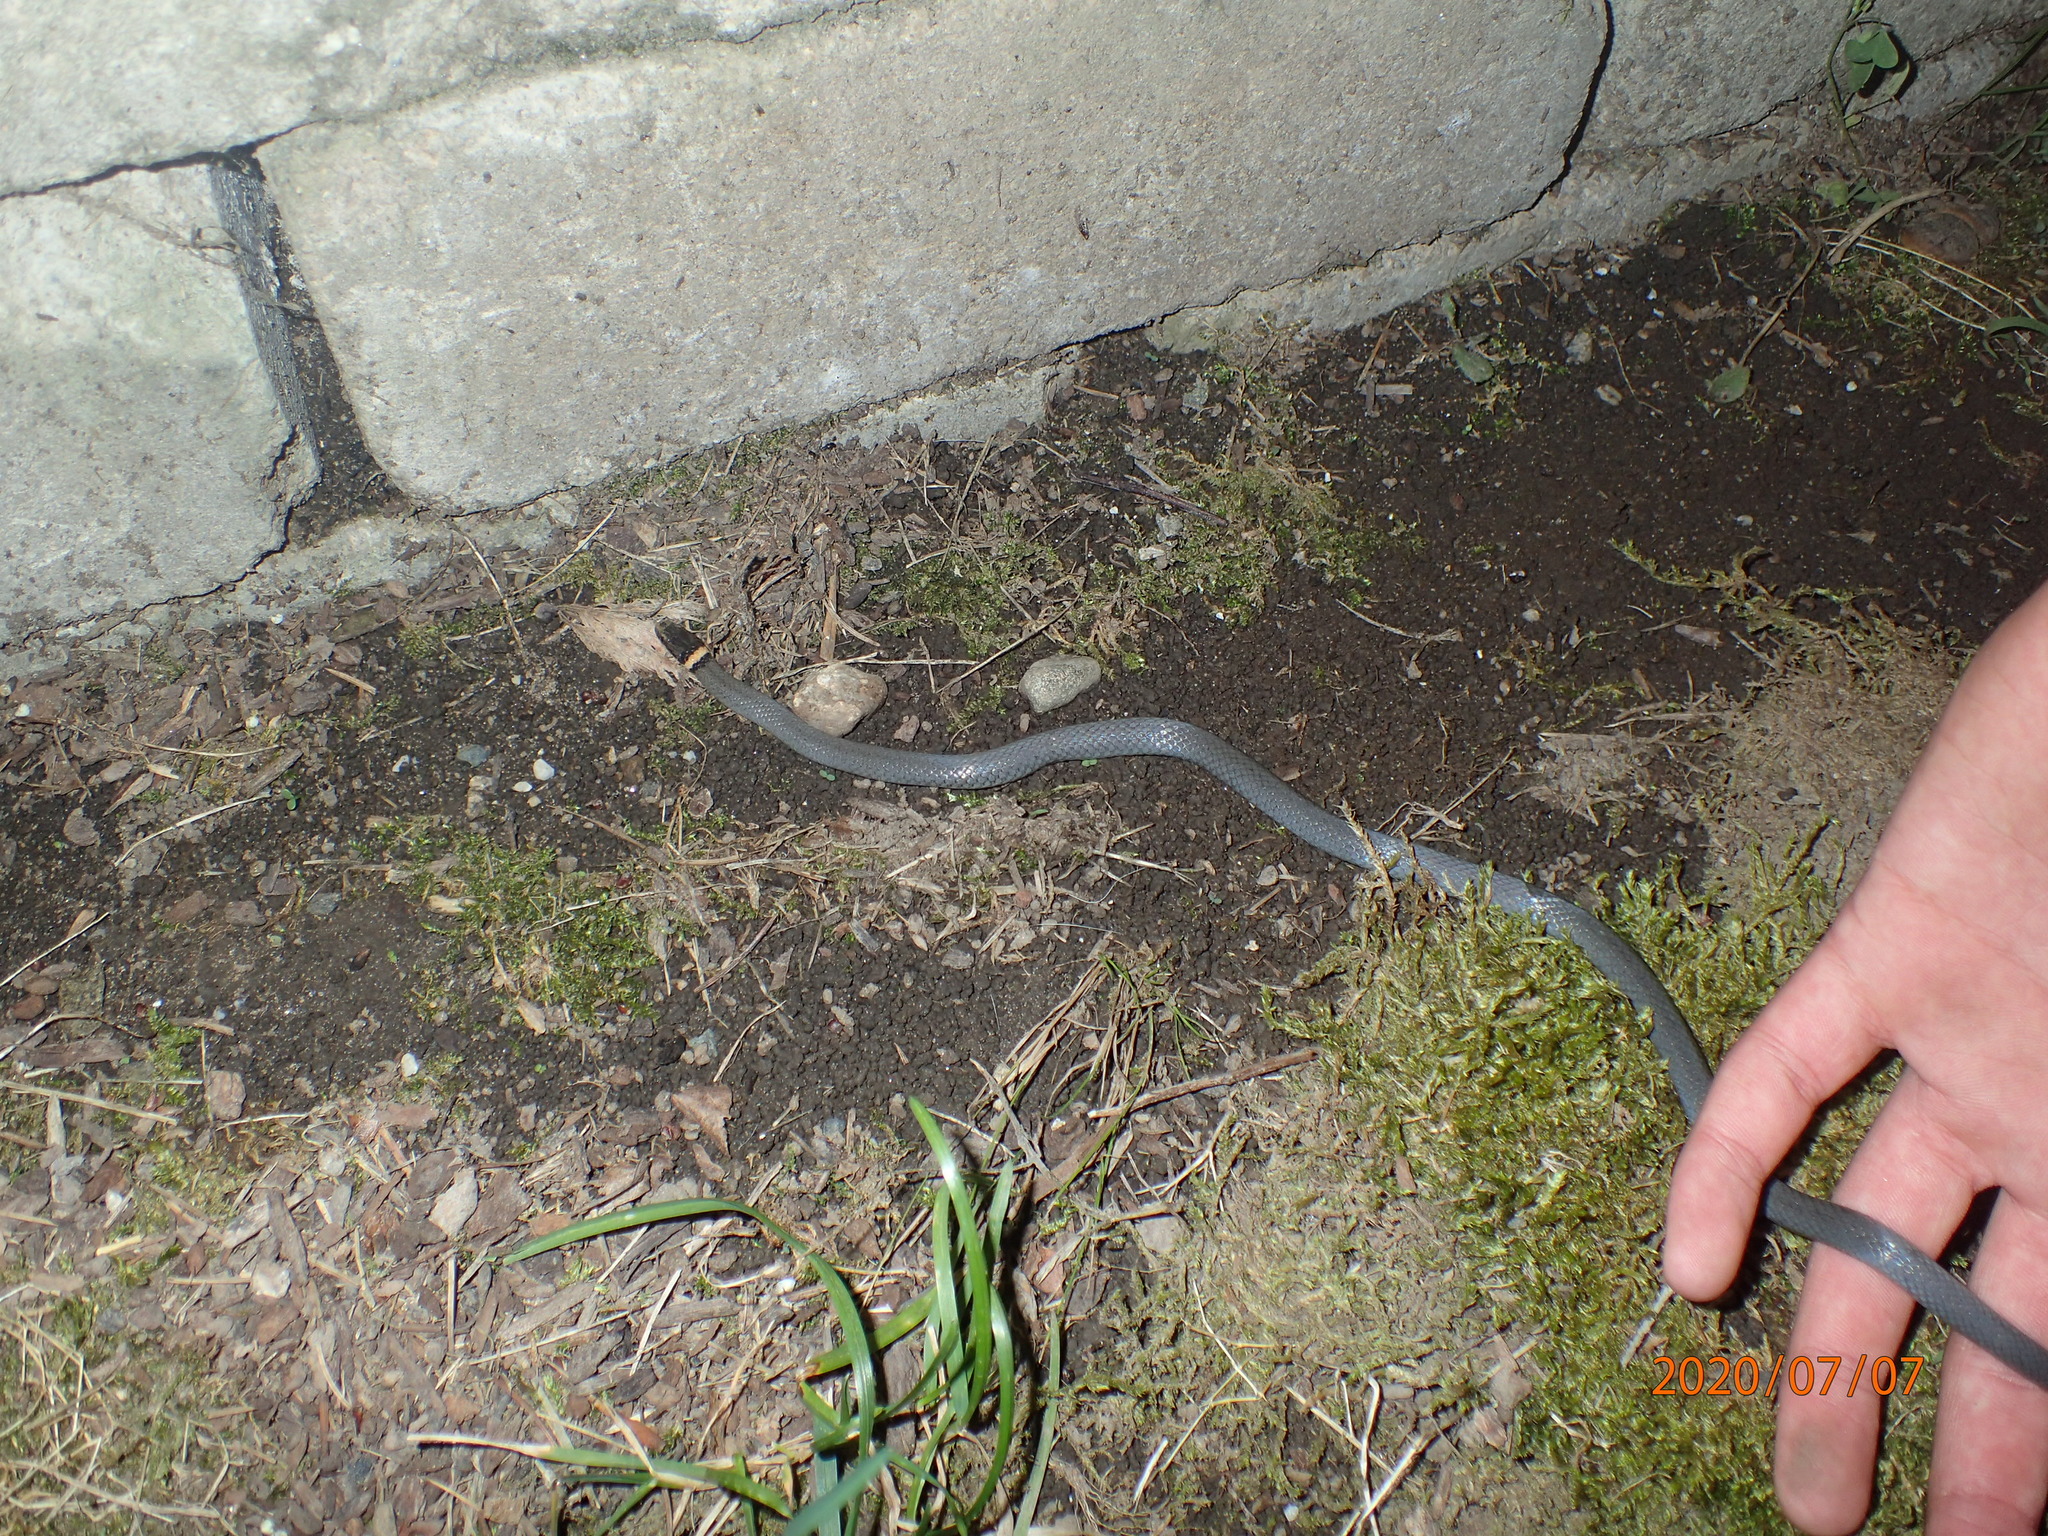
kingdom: Animalia
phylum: Chordata
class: Squamata
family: Colubridae
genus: Diadophis
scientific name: Diadophis punctatus
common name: Ringneck snake
